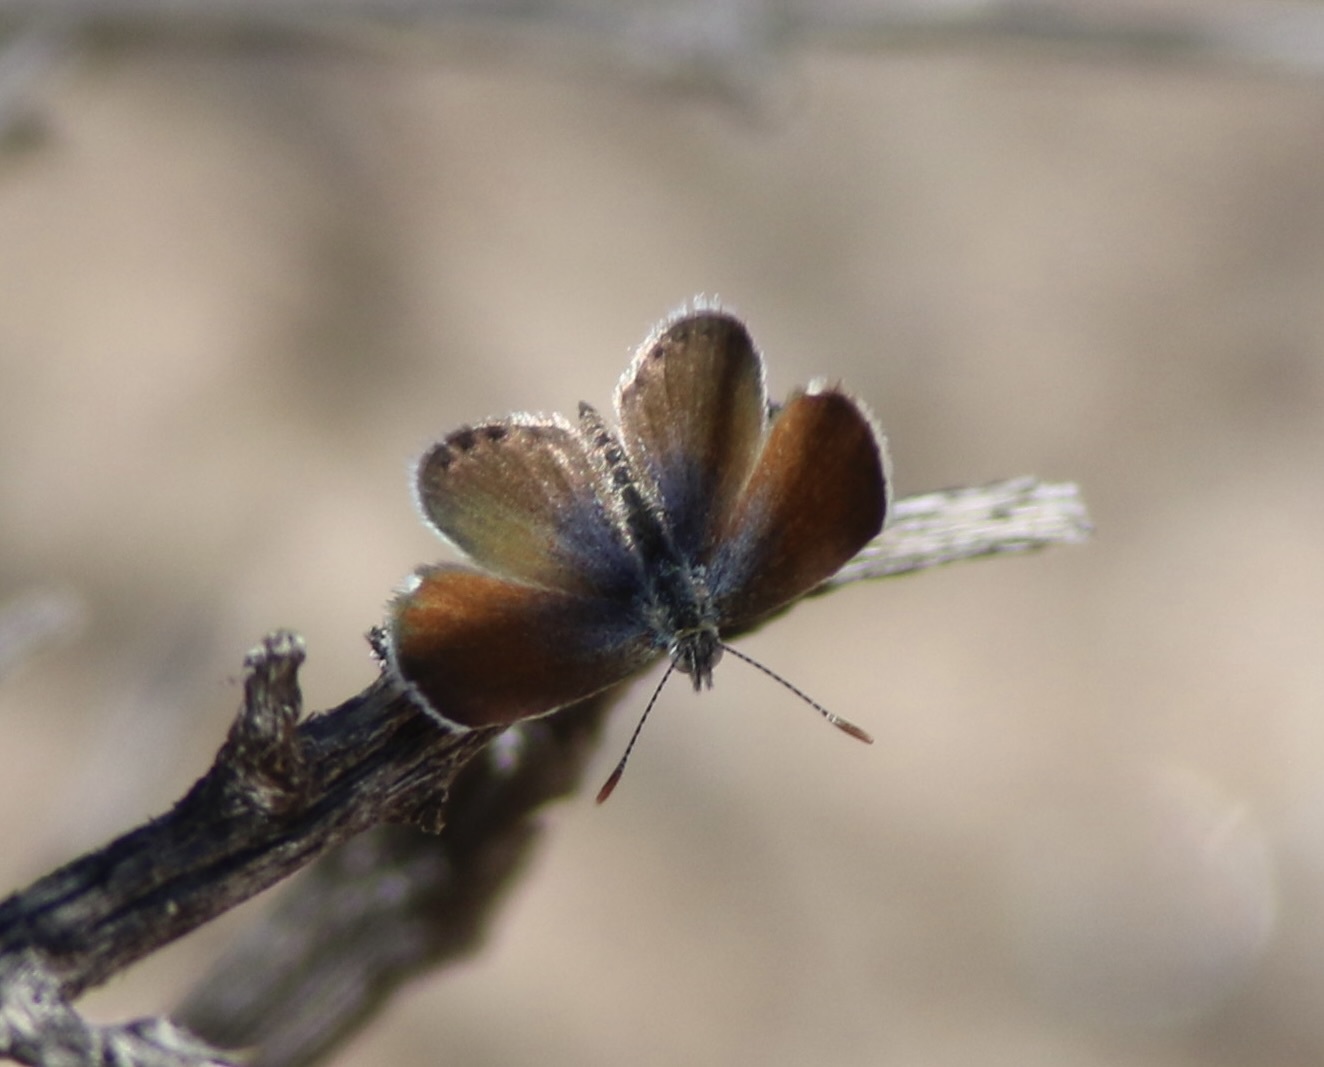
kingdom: Animalia
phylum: Arthropoda
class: Insecta
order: Lepidoptera
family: Lycaenidae
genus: Brephidium
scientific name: Brephidium exilis
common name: Pygmy blue
